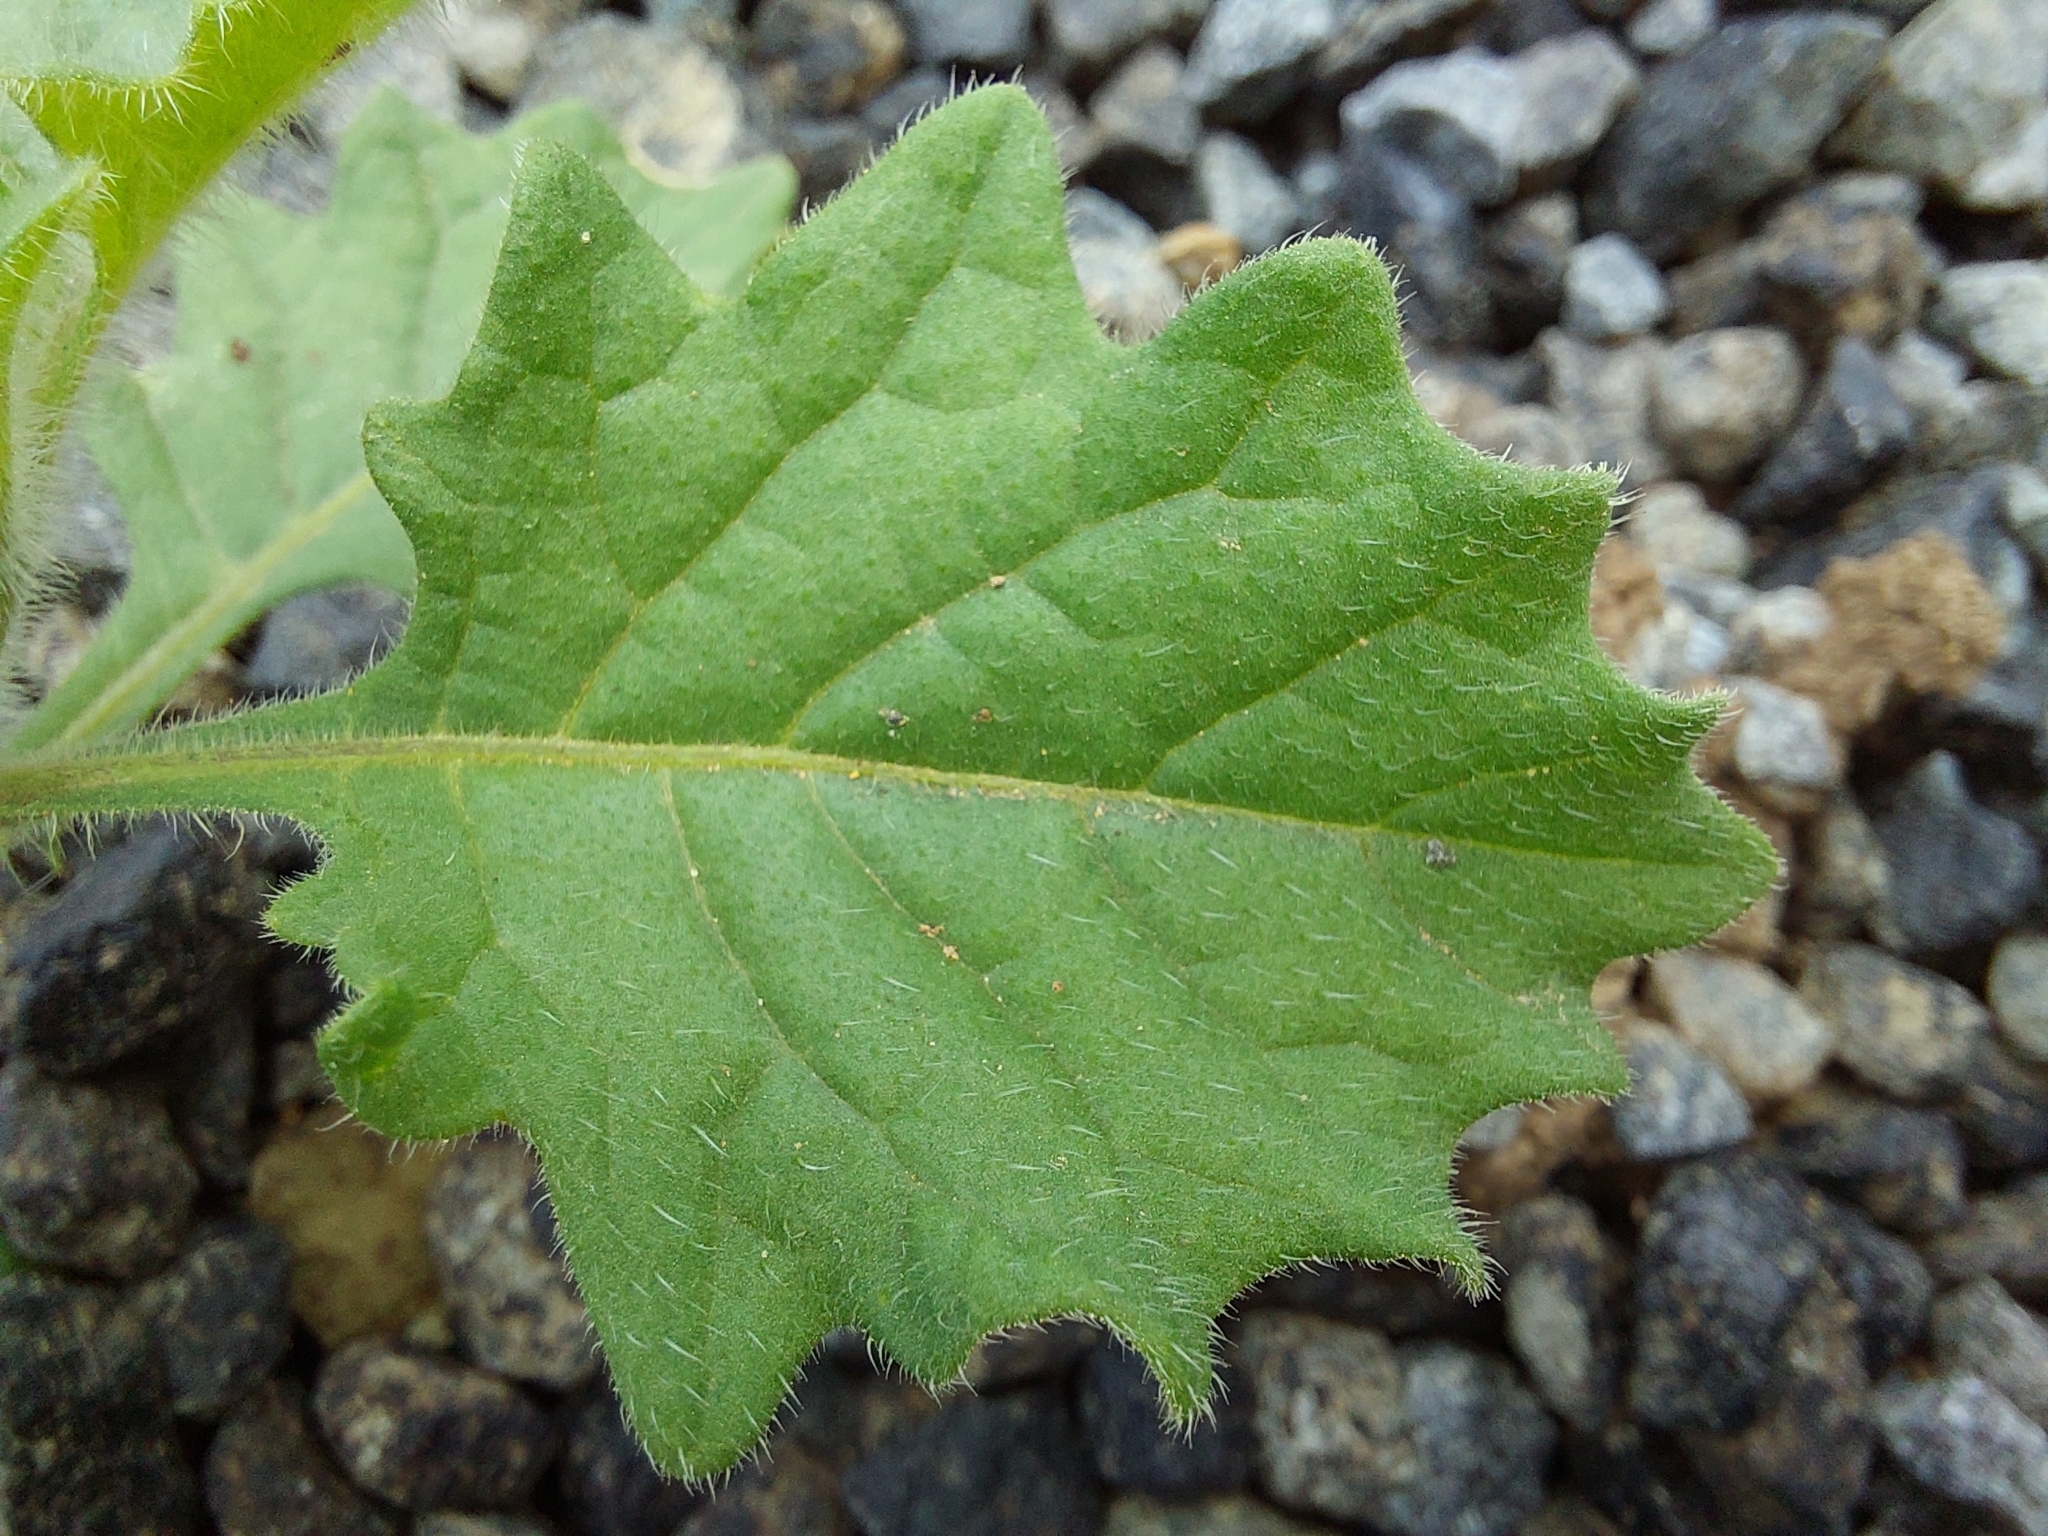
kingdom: Plantae
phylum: Tracheophyta
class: Magnoliopsida
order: Solanales
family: Solanaceae
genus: Solanum
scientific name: Solanum retroflexum
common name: Wonderberry
